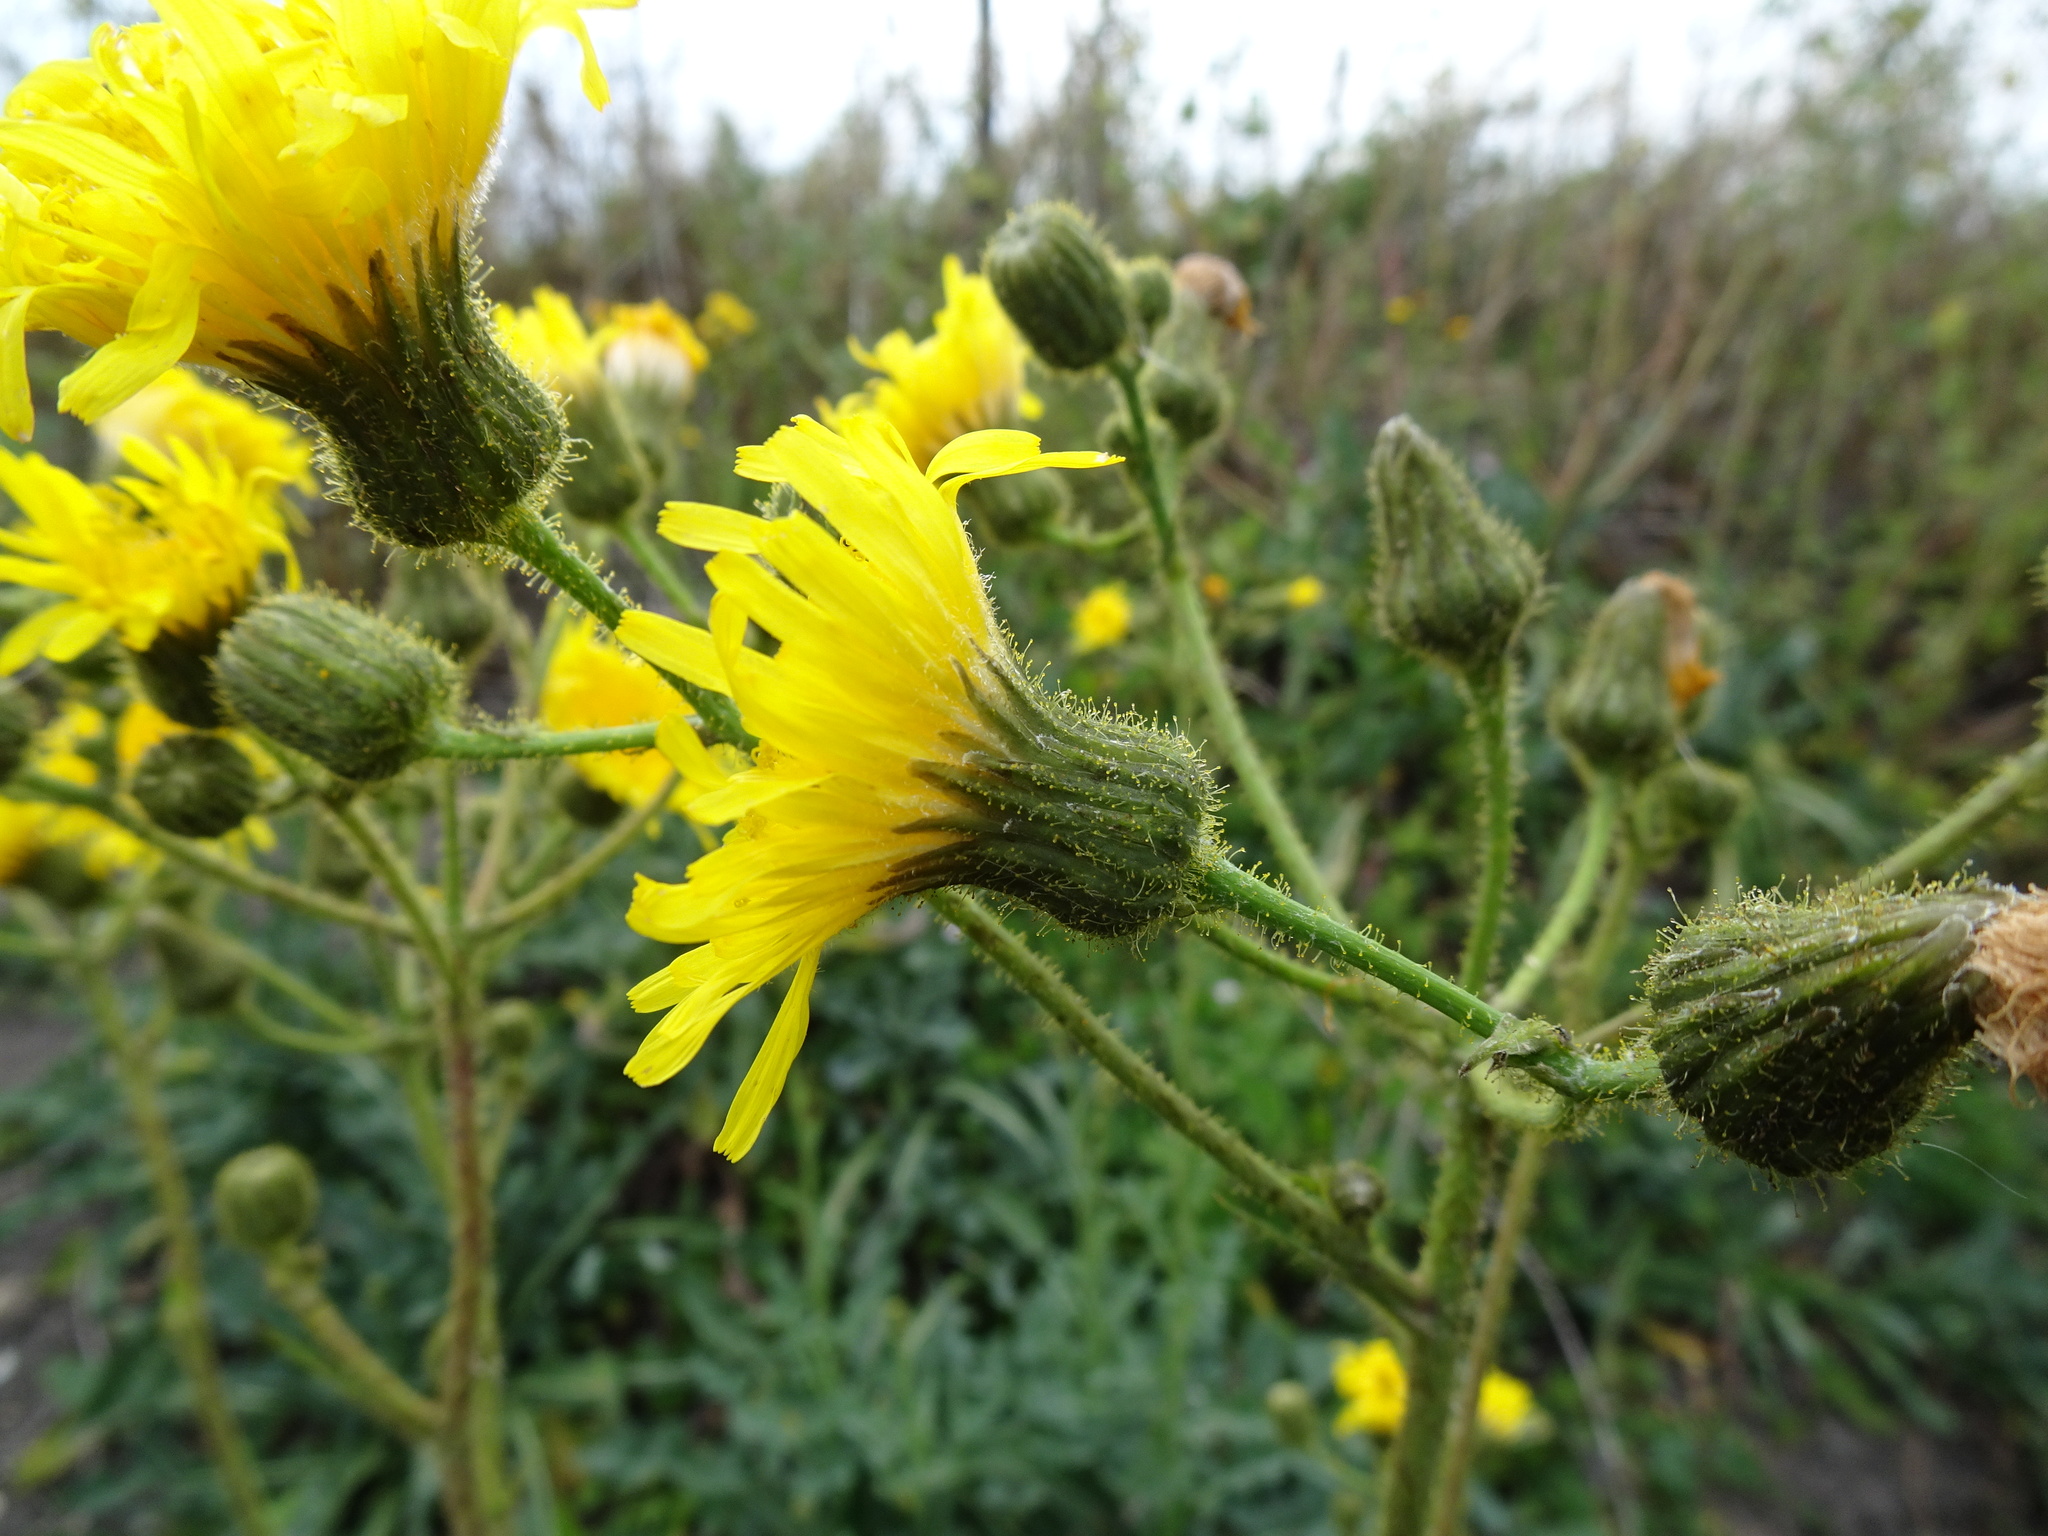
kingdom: Plantae
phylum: Tracheophyta
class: Magnoliopsida
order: Asterales
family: Asteraceae
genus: Sonchus
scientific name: Sonchus arvensis
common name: Perennial sow-thistle
